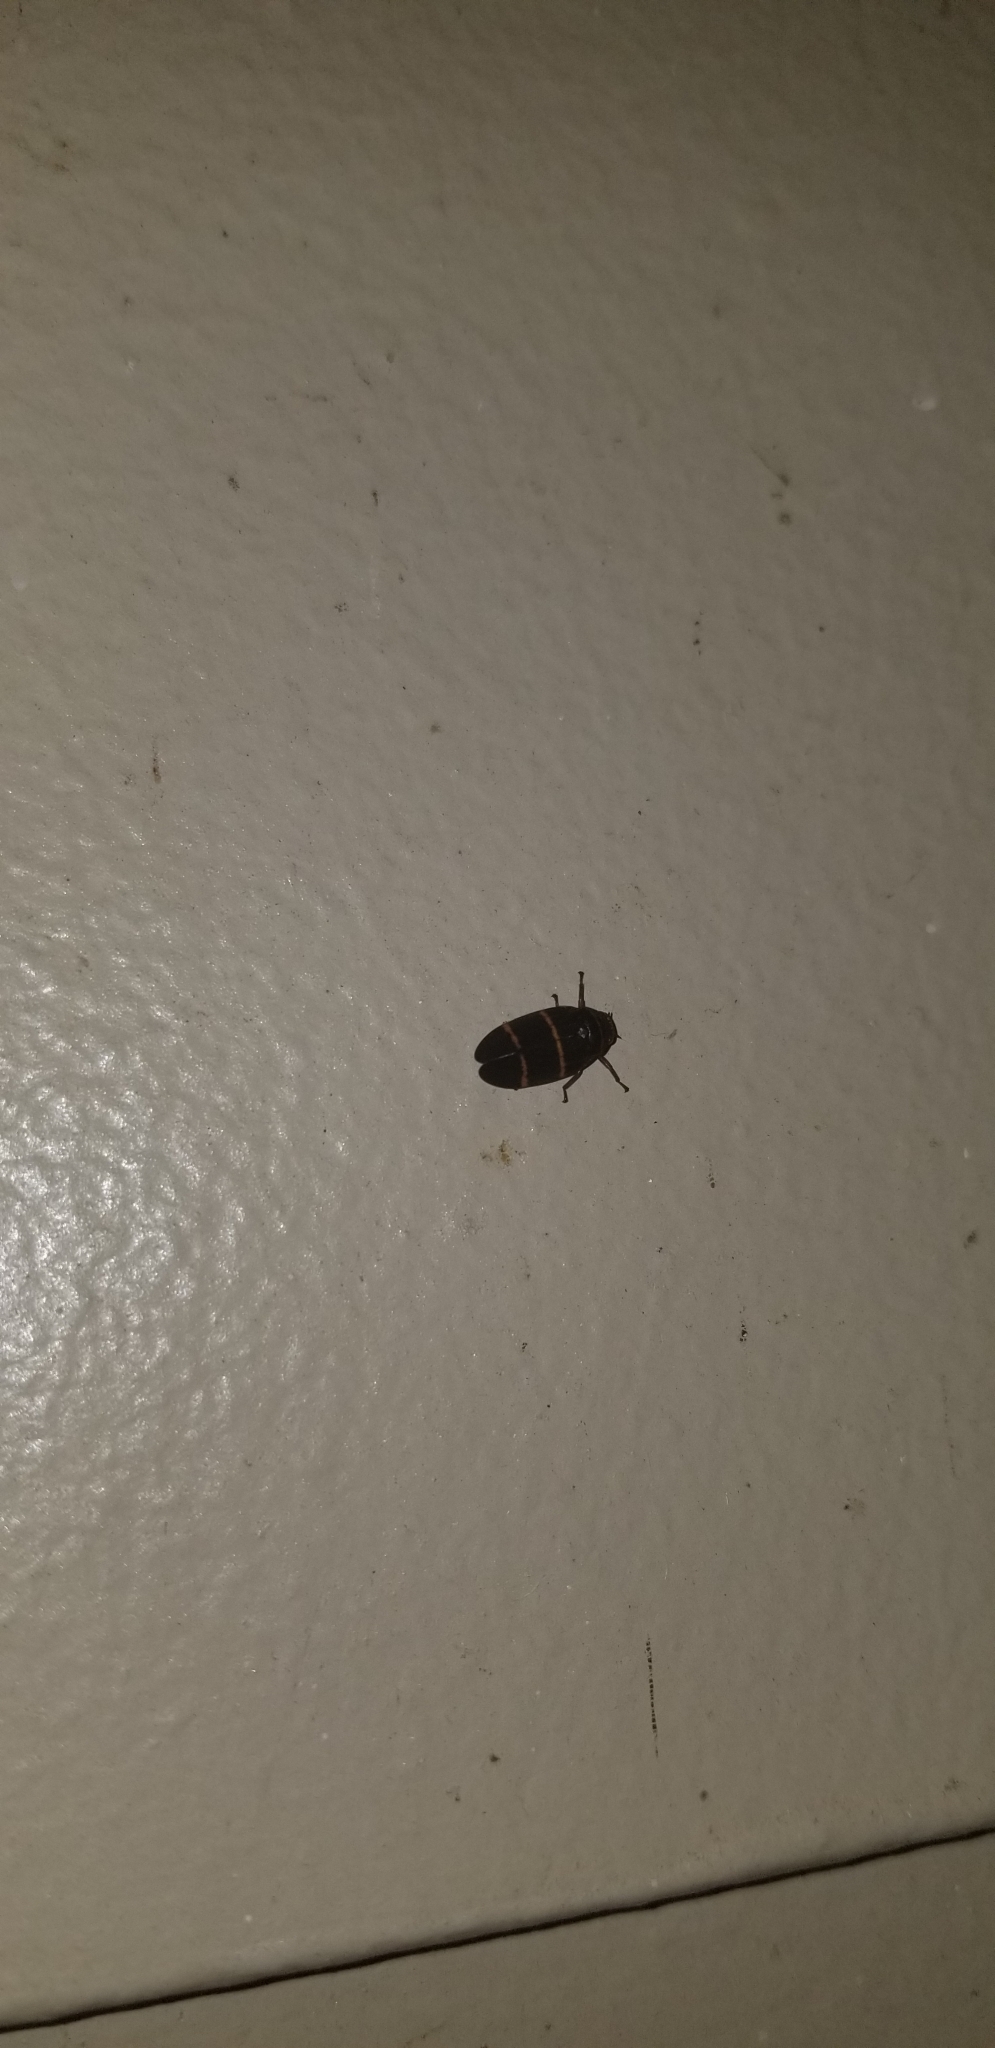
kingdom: Animalia
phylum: Arthropoda
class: Insecta
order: Hemiptera
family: Cercopidae
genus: Prosapia
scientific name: Prosapia bicincta
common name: Twolined spittlebug
